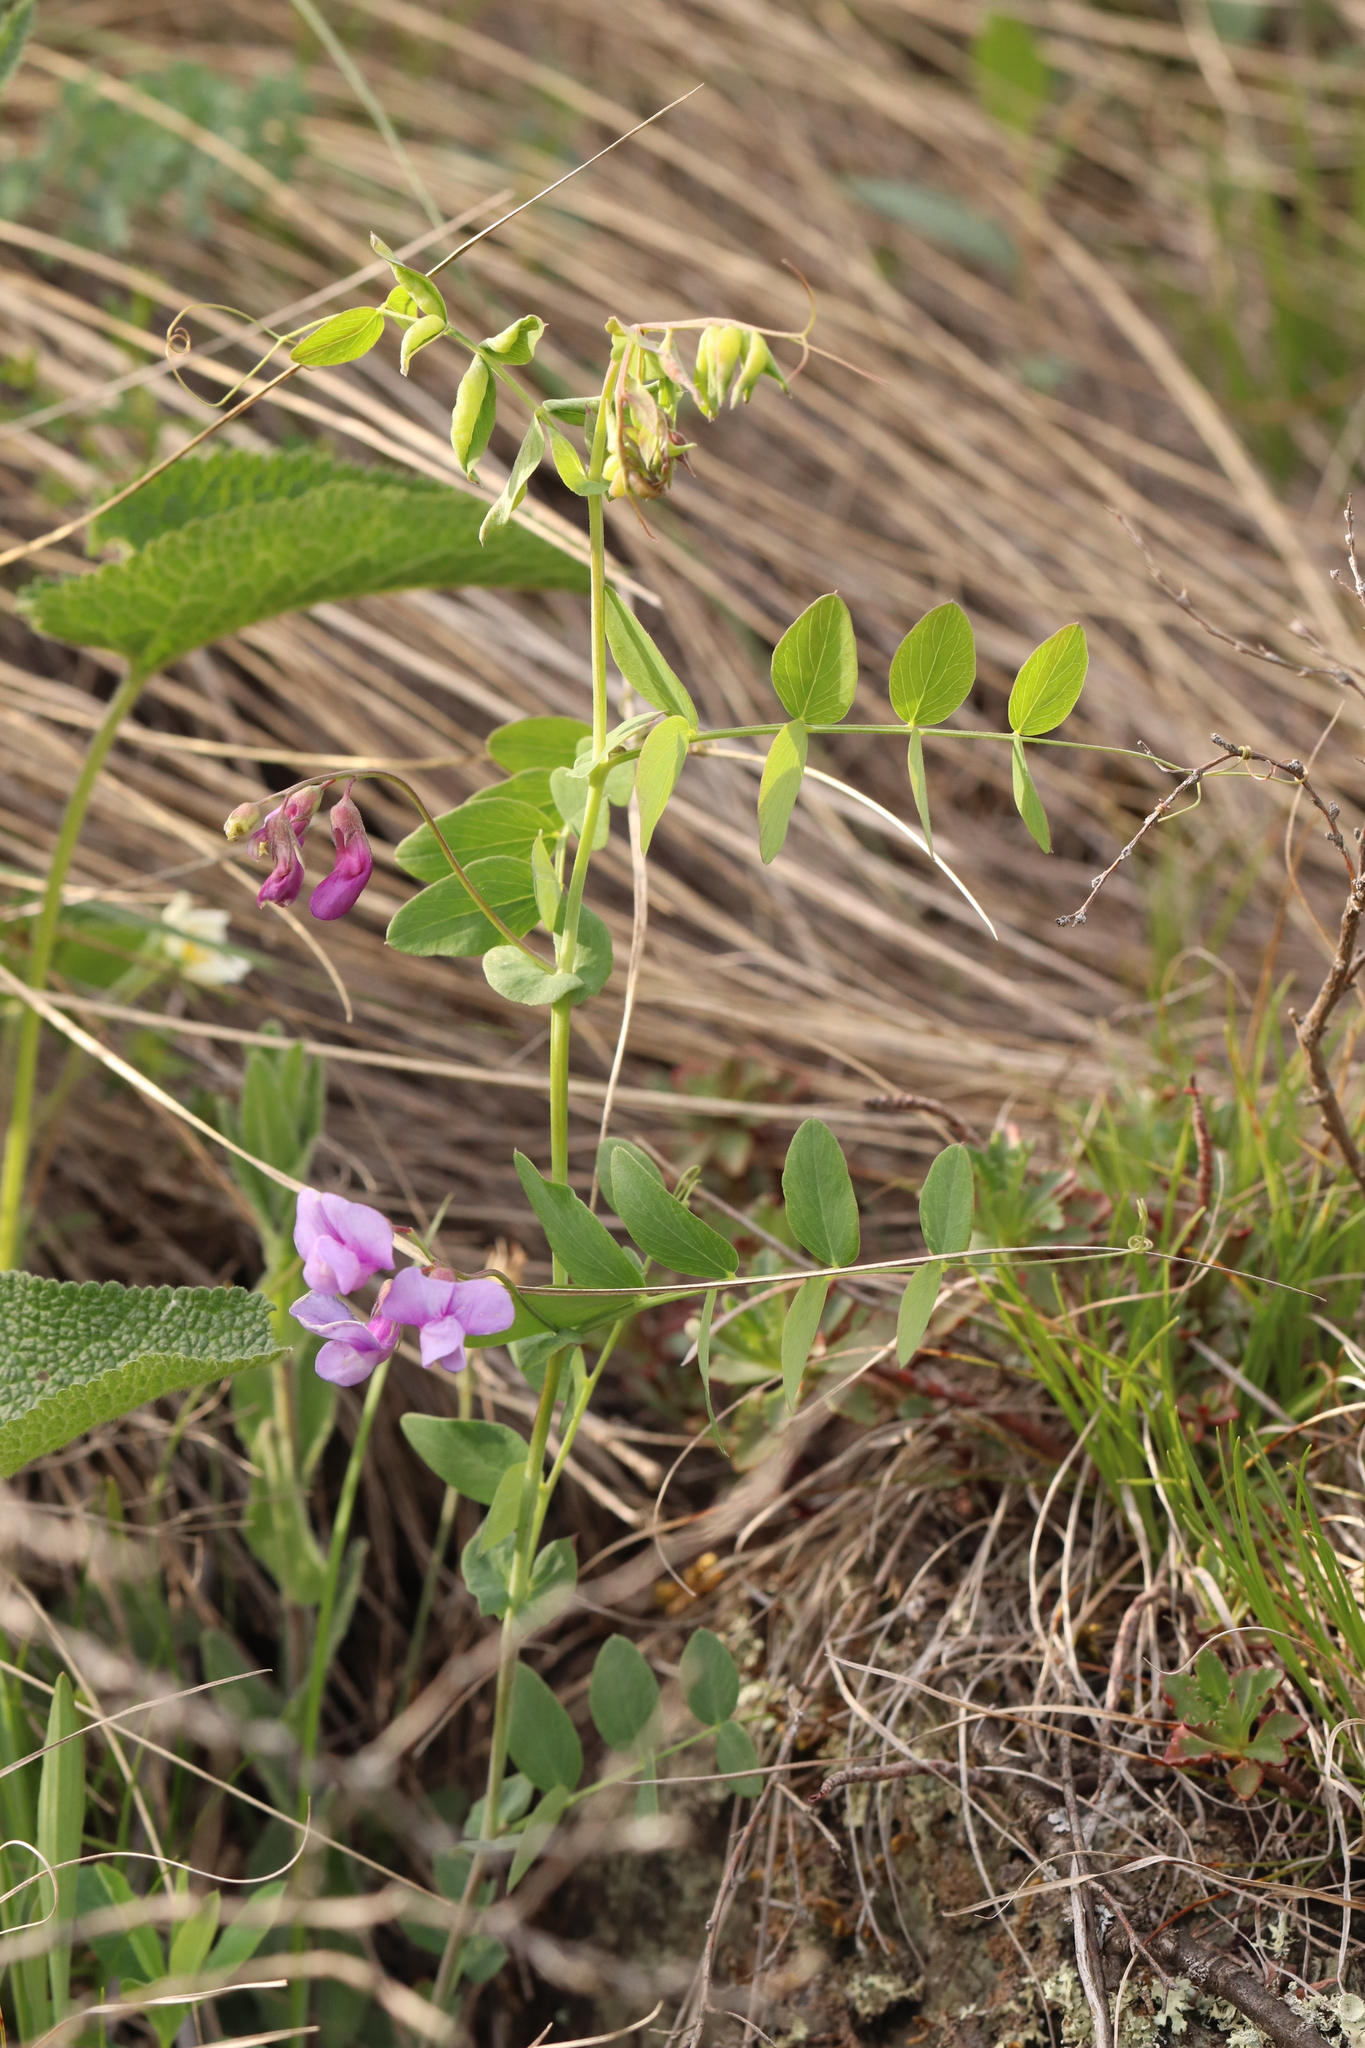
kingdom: Plantae
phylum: Tracheophyta
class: Magnoliopsida
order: Fabales
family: Fabaceae
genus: Lathyrus
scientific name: Lathyrus humilis
